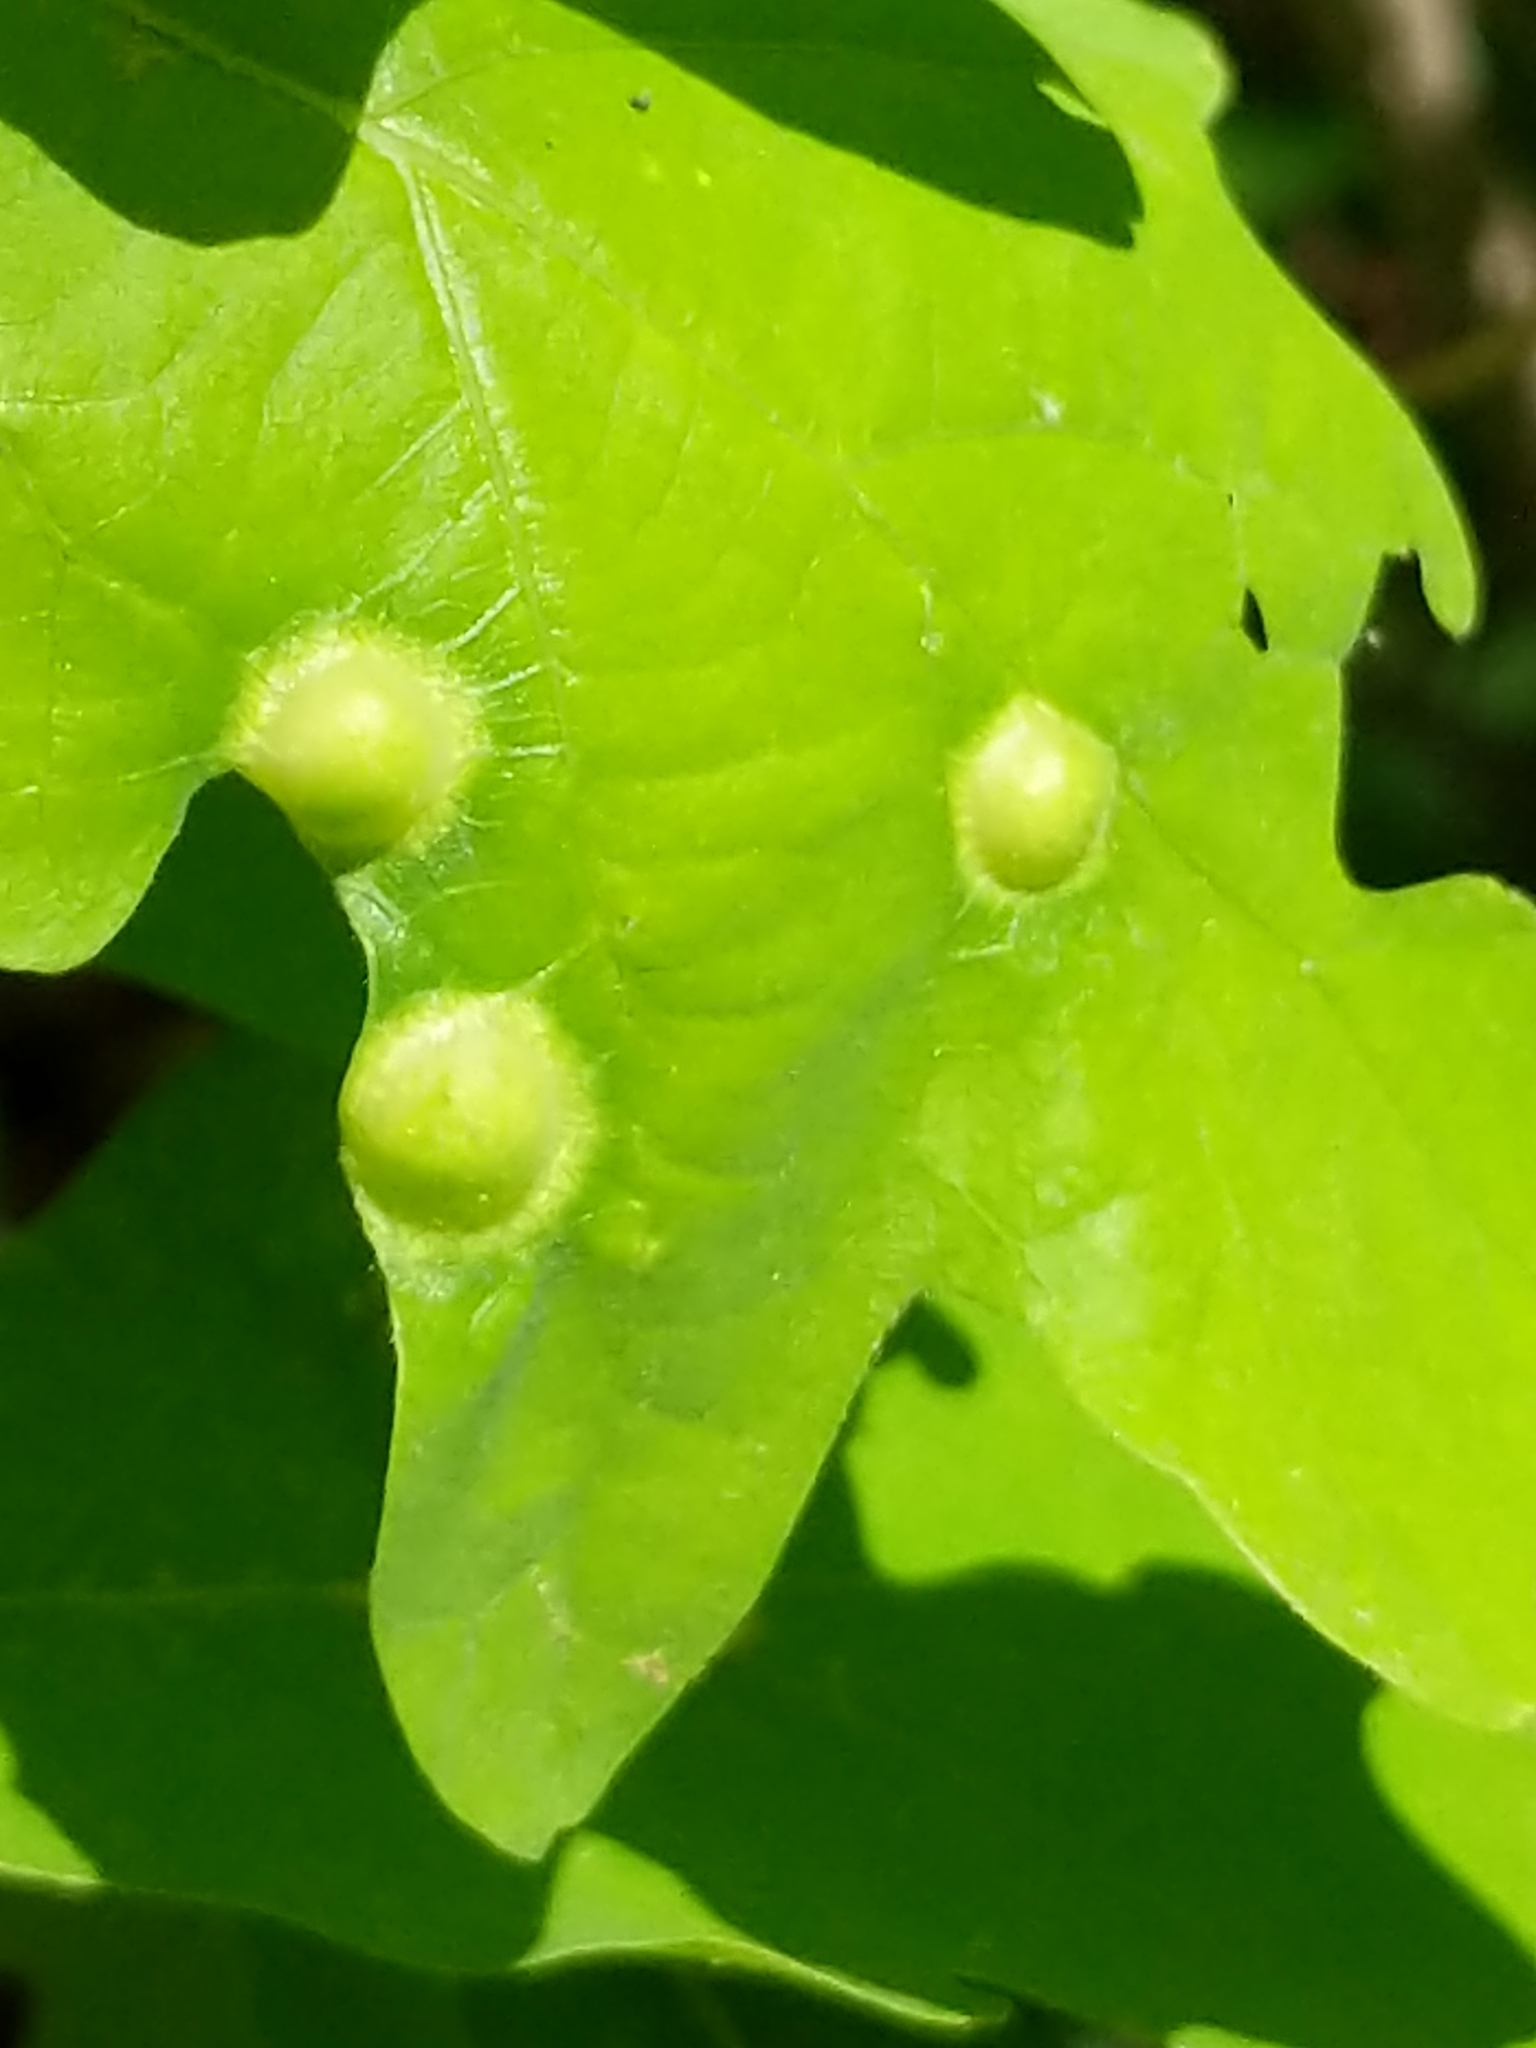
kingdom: Animalia
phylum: Arthropoda
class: Insecta
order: Hymenoptera
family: Cynipidae
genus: Callirhytis
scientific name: Callirhytis
